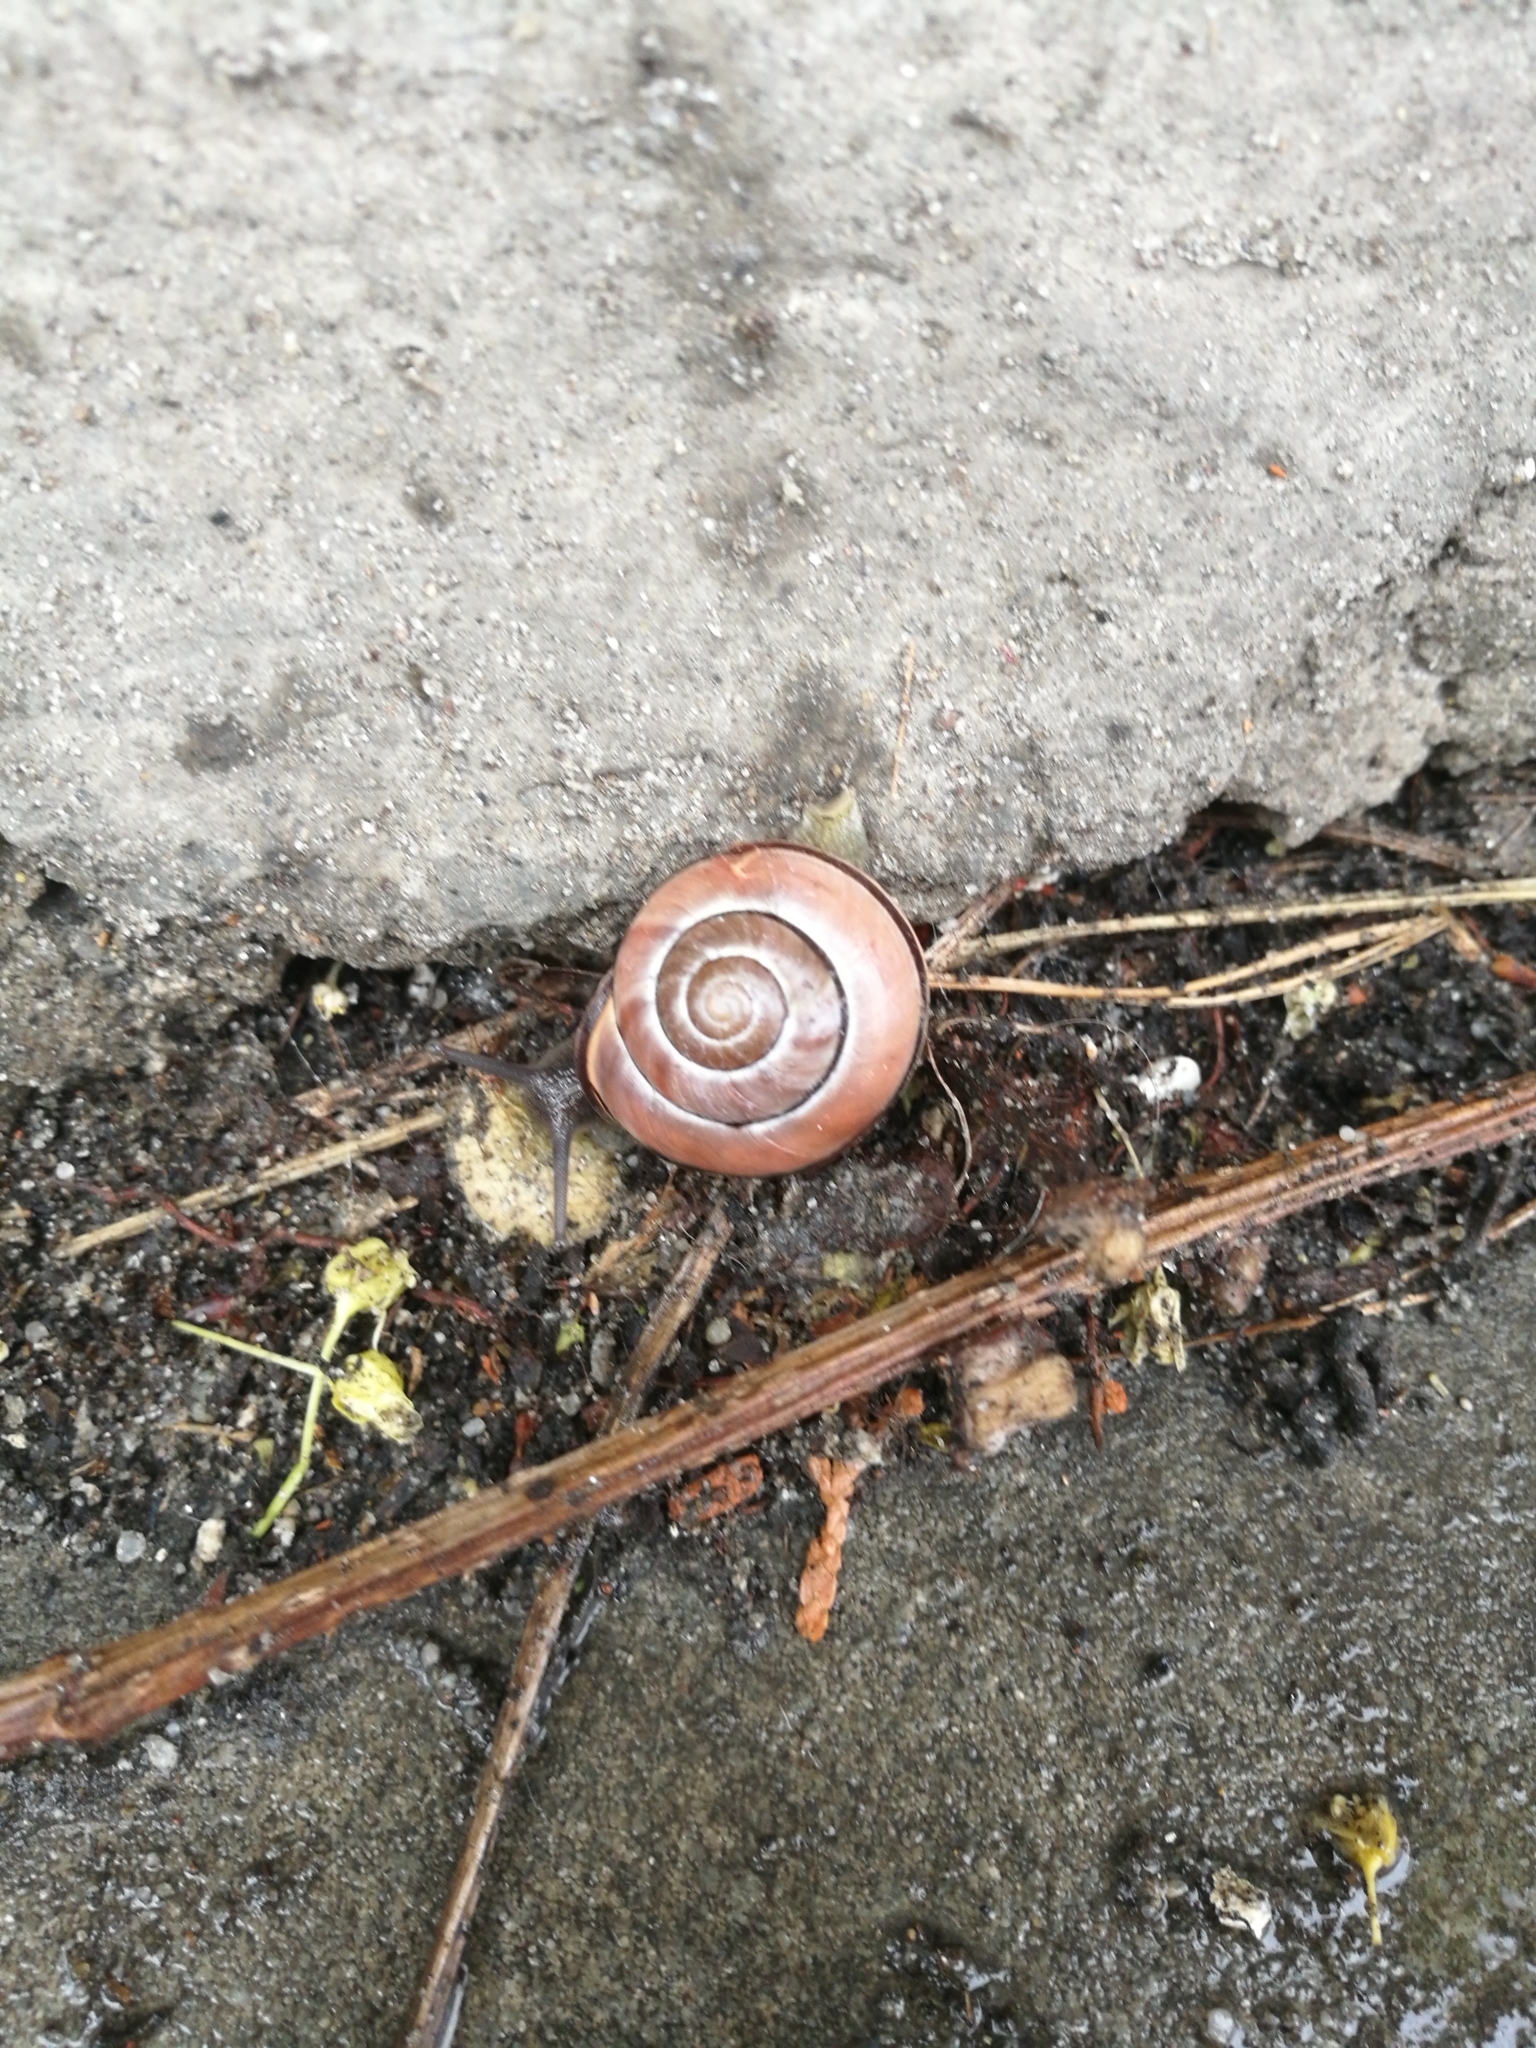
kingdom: Animalia
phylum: Mollusca
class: Gastropoda
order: Stylommatophora
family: Helicidae
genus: Cepaea
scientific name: Cepaea nemoralis
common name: Grovesnail
